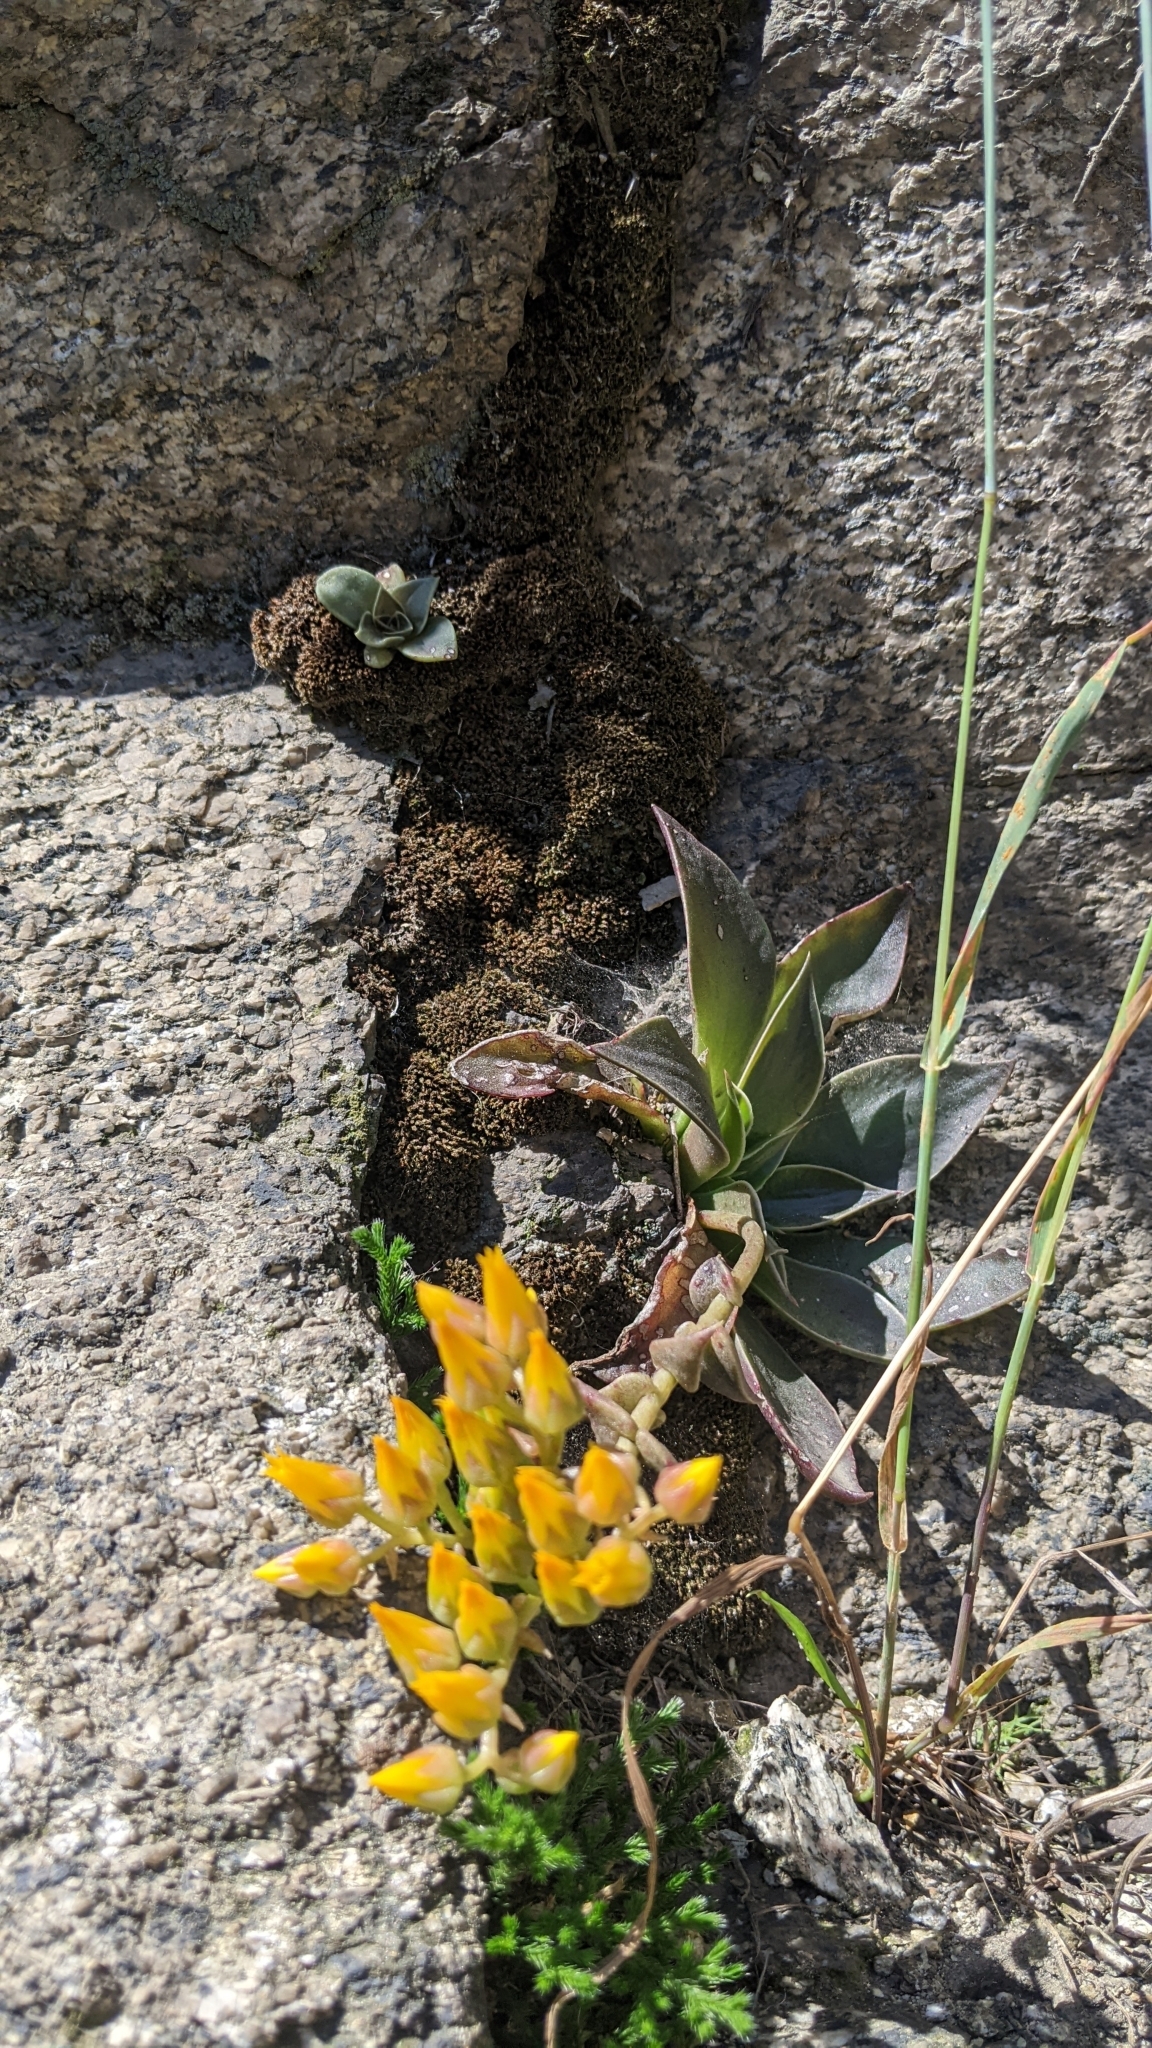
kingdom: Plantae
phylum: Tracheophyta
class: Magnoliopsida
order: Saxifragales
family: Crassulaceae
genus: Dudleya
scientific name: Dudleya cymosa
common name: Canyon dudleya
